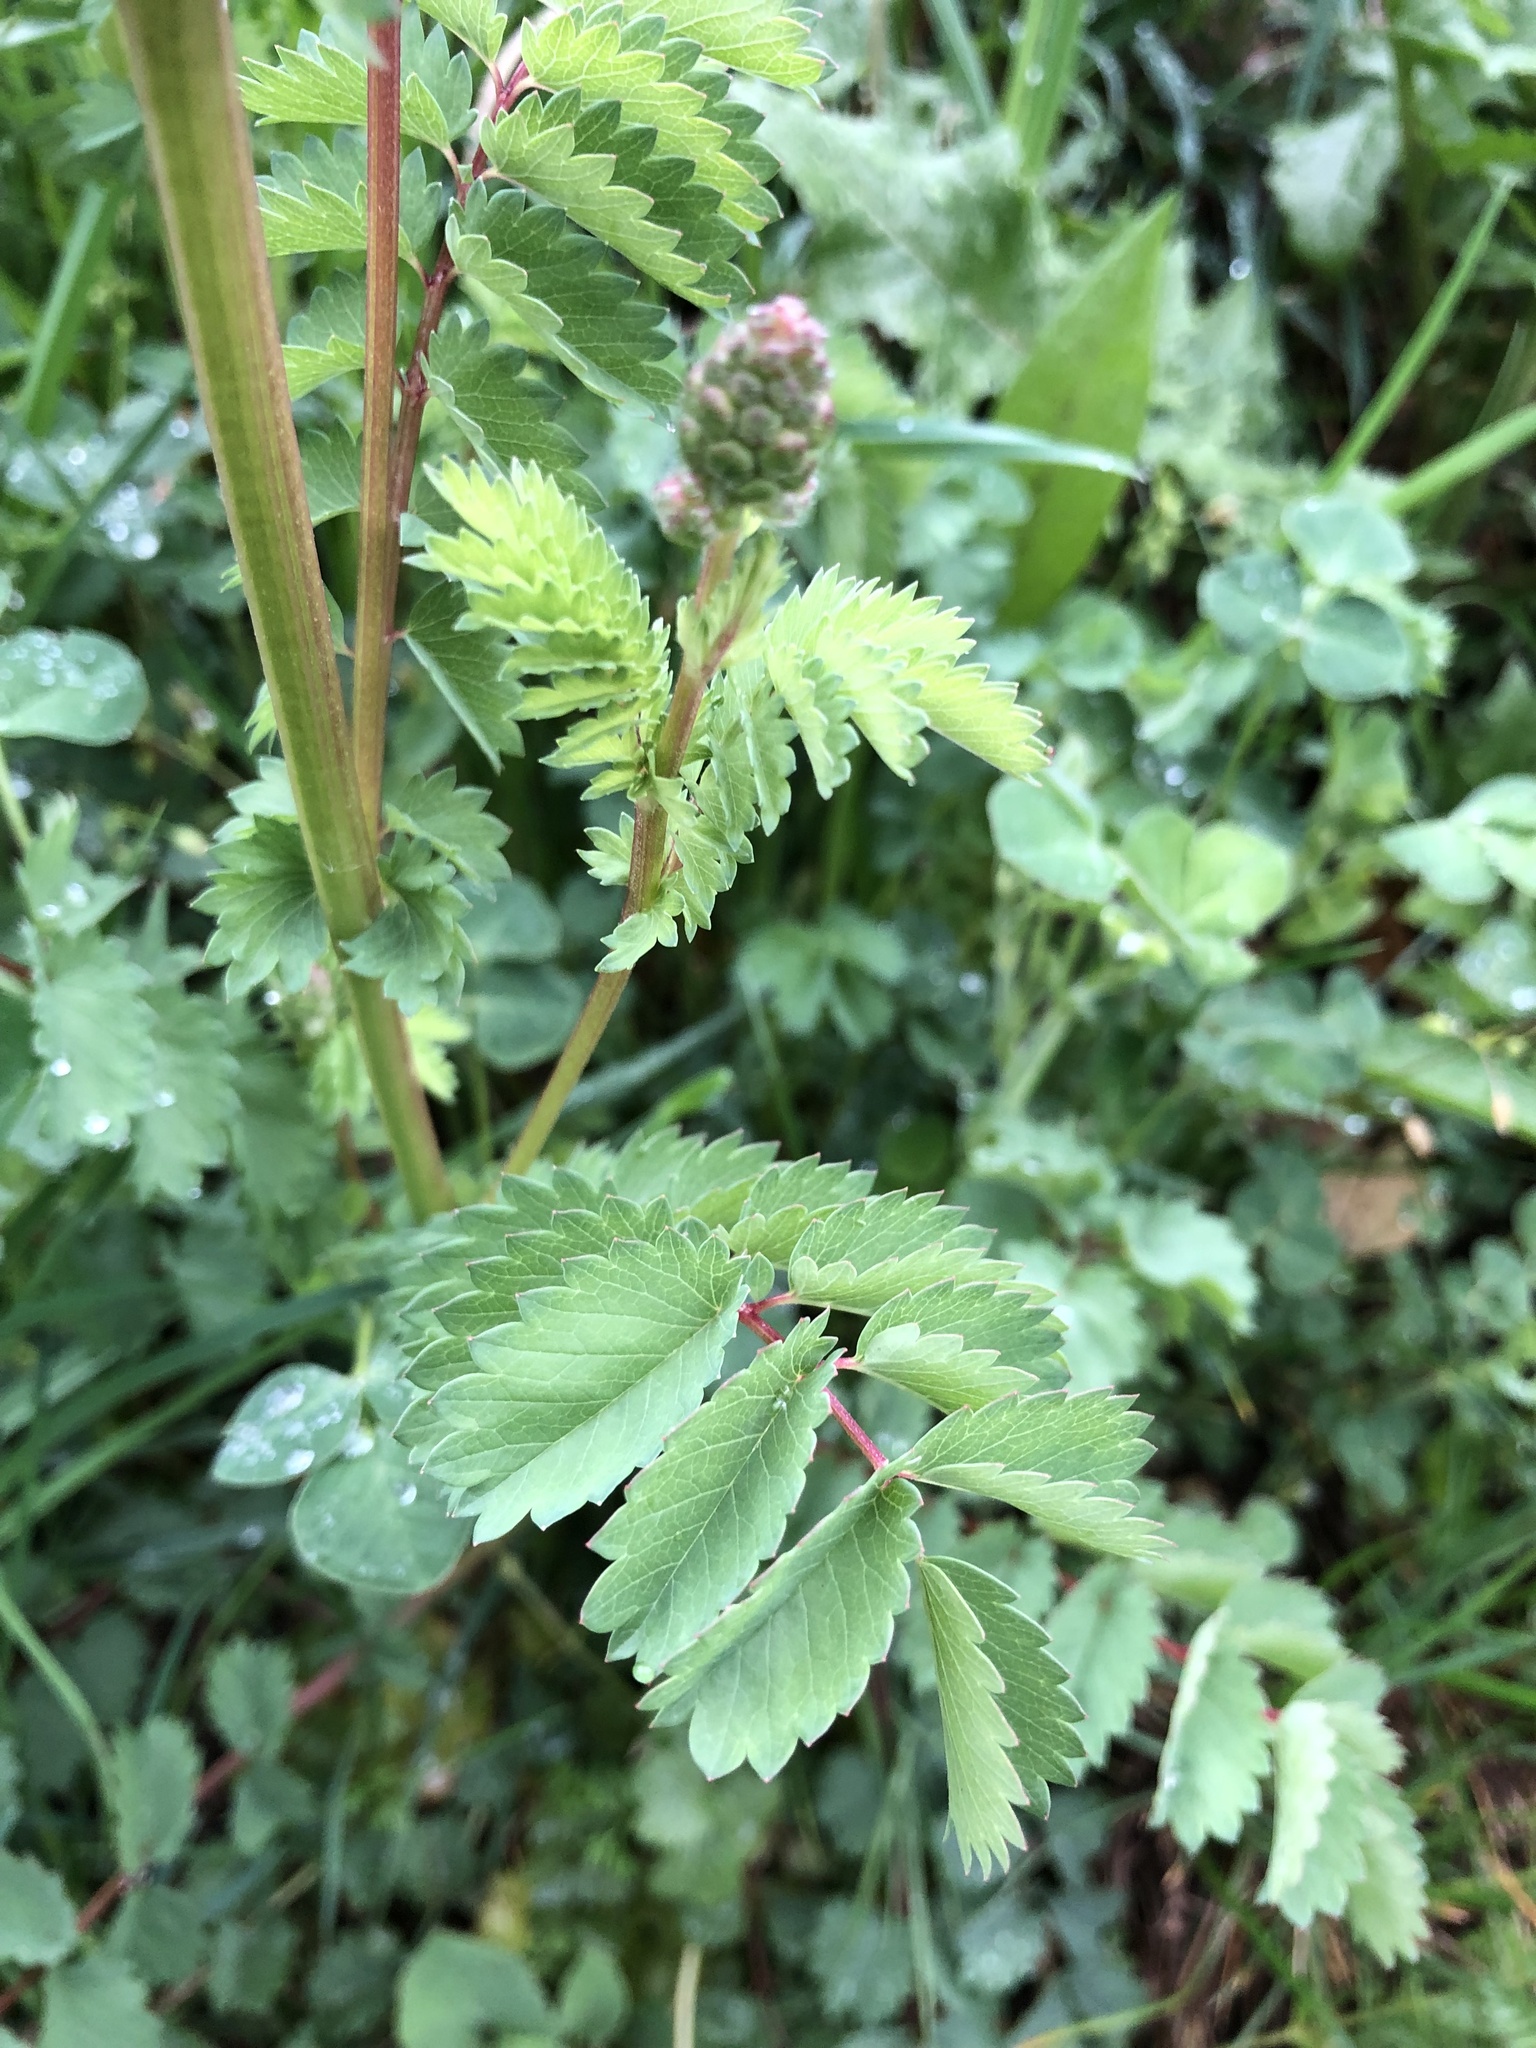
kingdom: Plantae
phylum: Tracheophyta
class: Magnoliopsida
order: Rosales
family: Rosaceae
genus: Poterium
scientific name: Poterium sanguisorba
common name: Salad burnet
